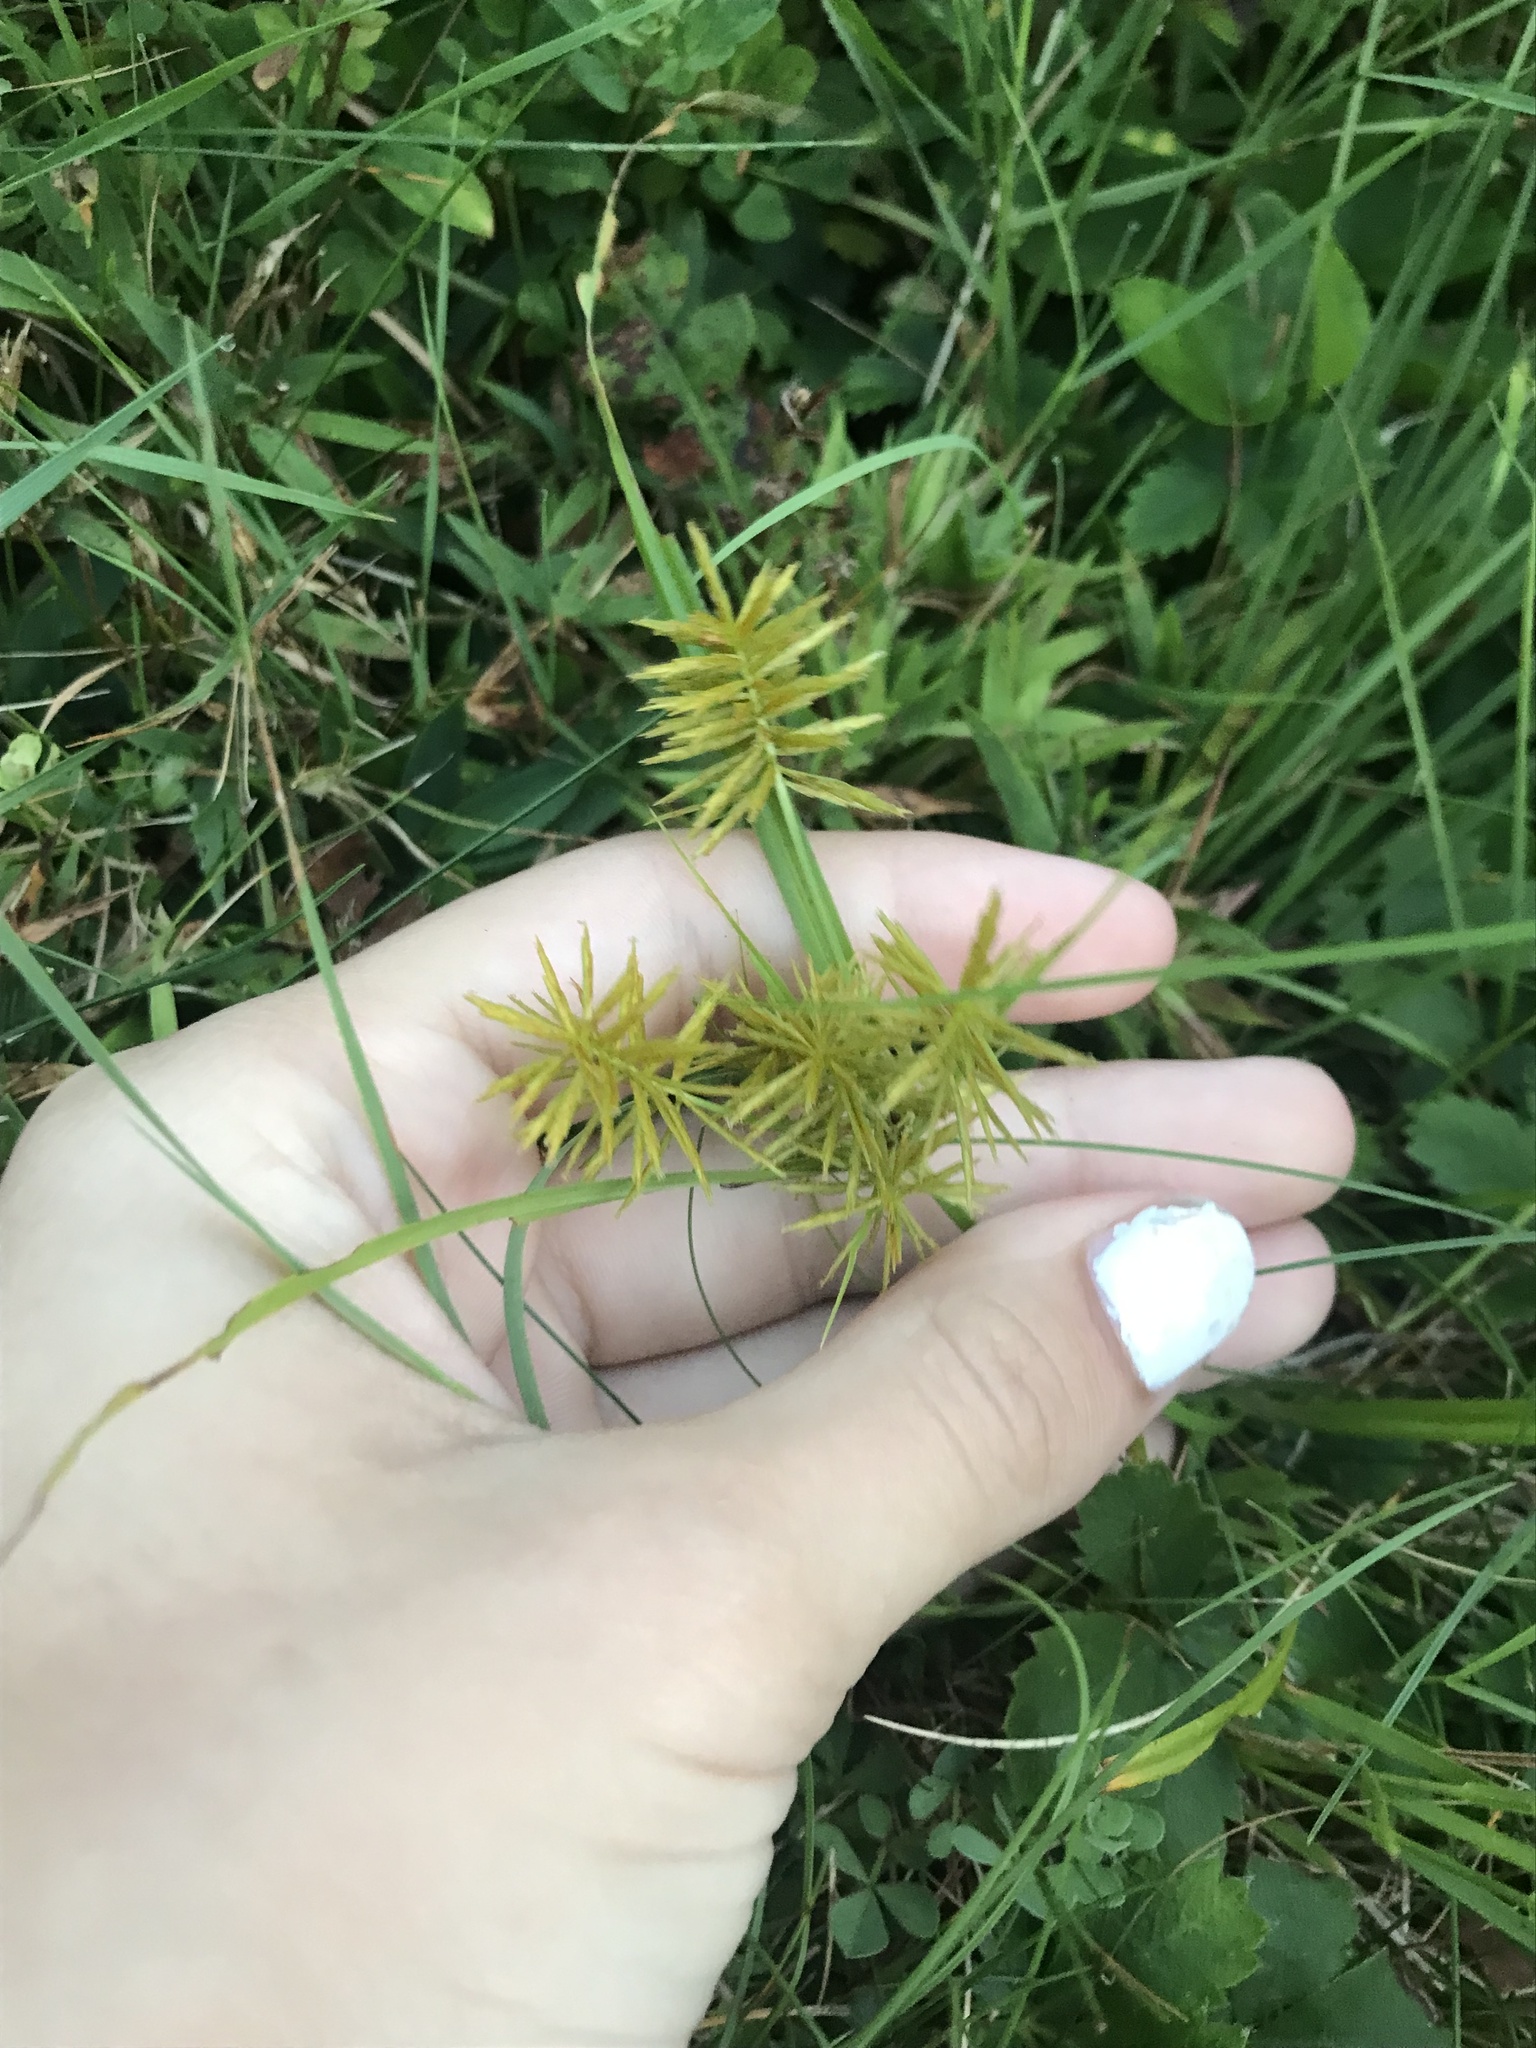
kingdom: Plantae
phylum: Tracheophyta
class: Liliopsida
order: Poales
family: Cyperaceae
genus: Cyperus
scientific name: Cyperus strigosus
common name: False nutsedge
